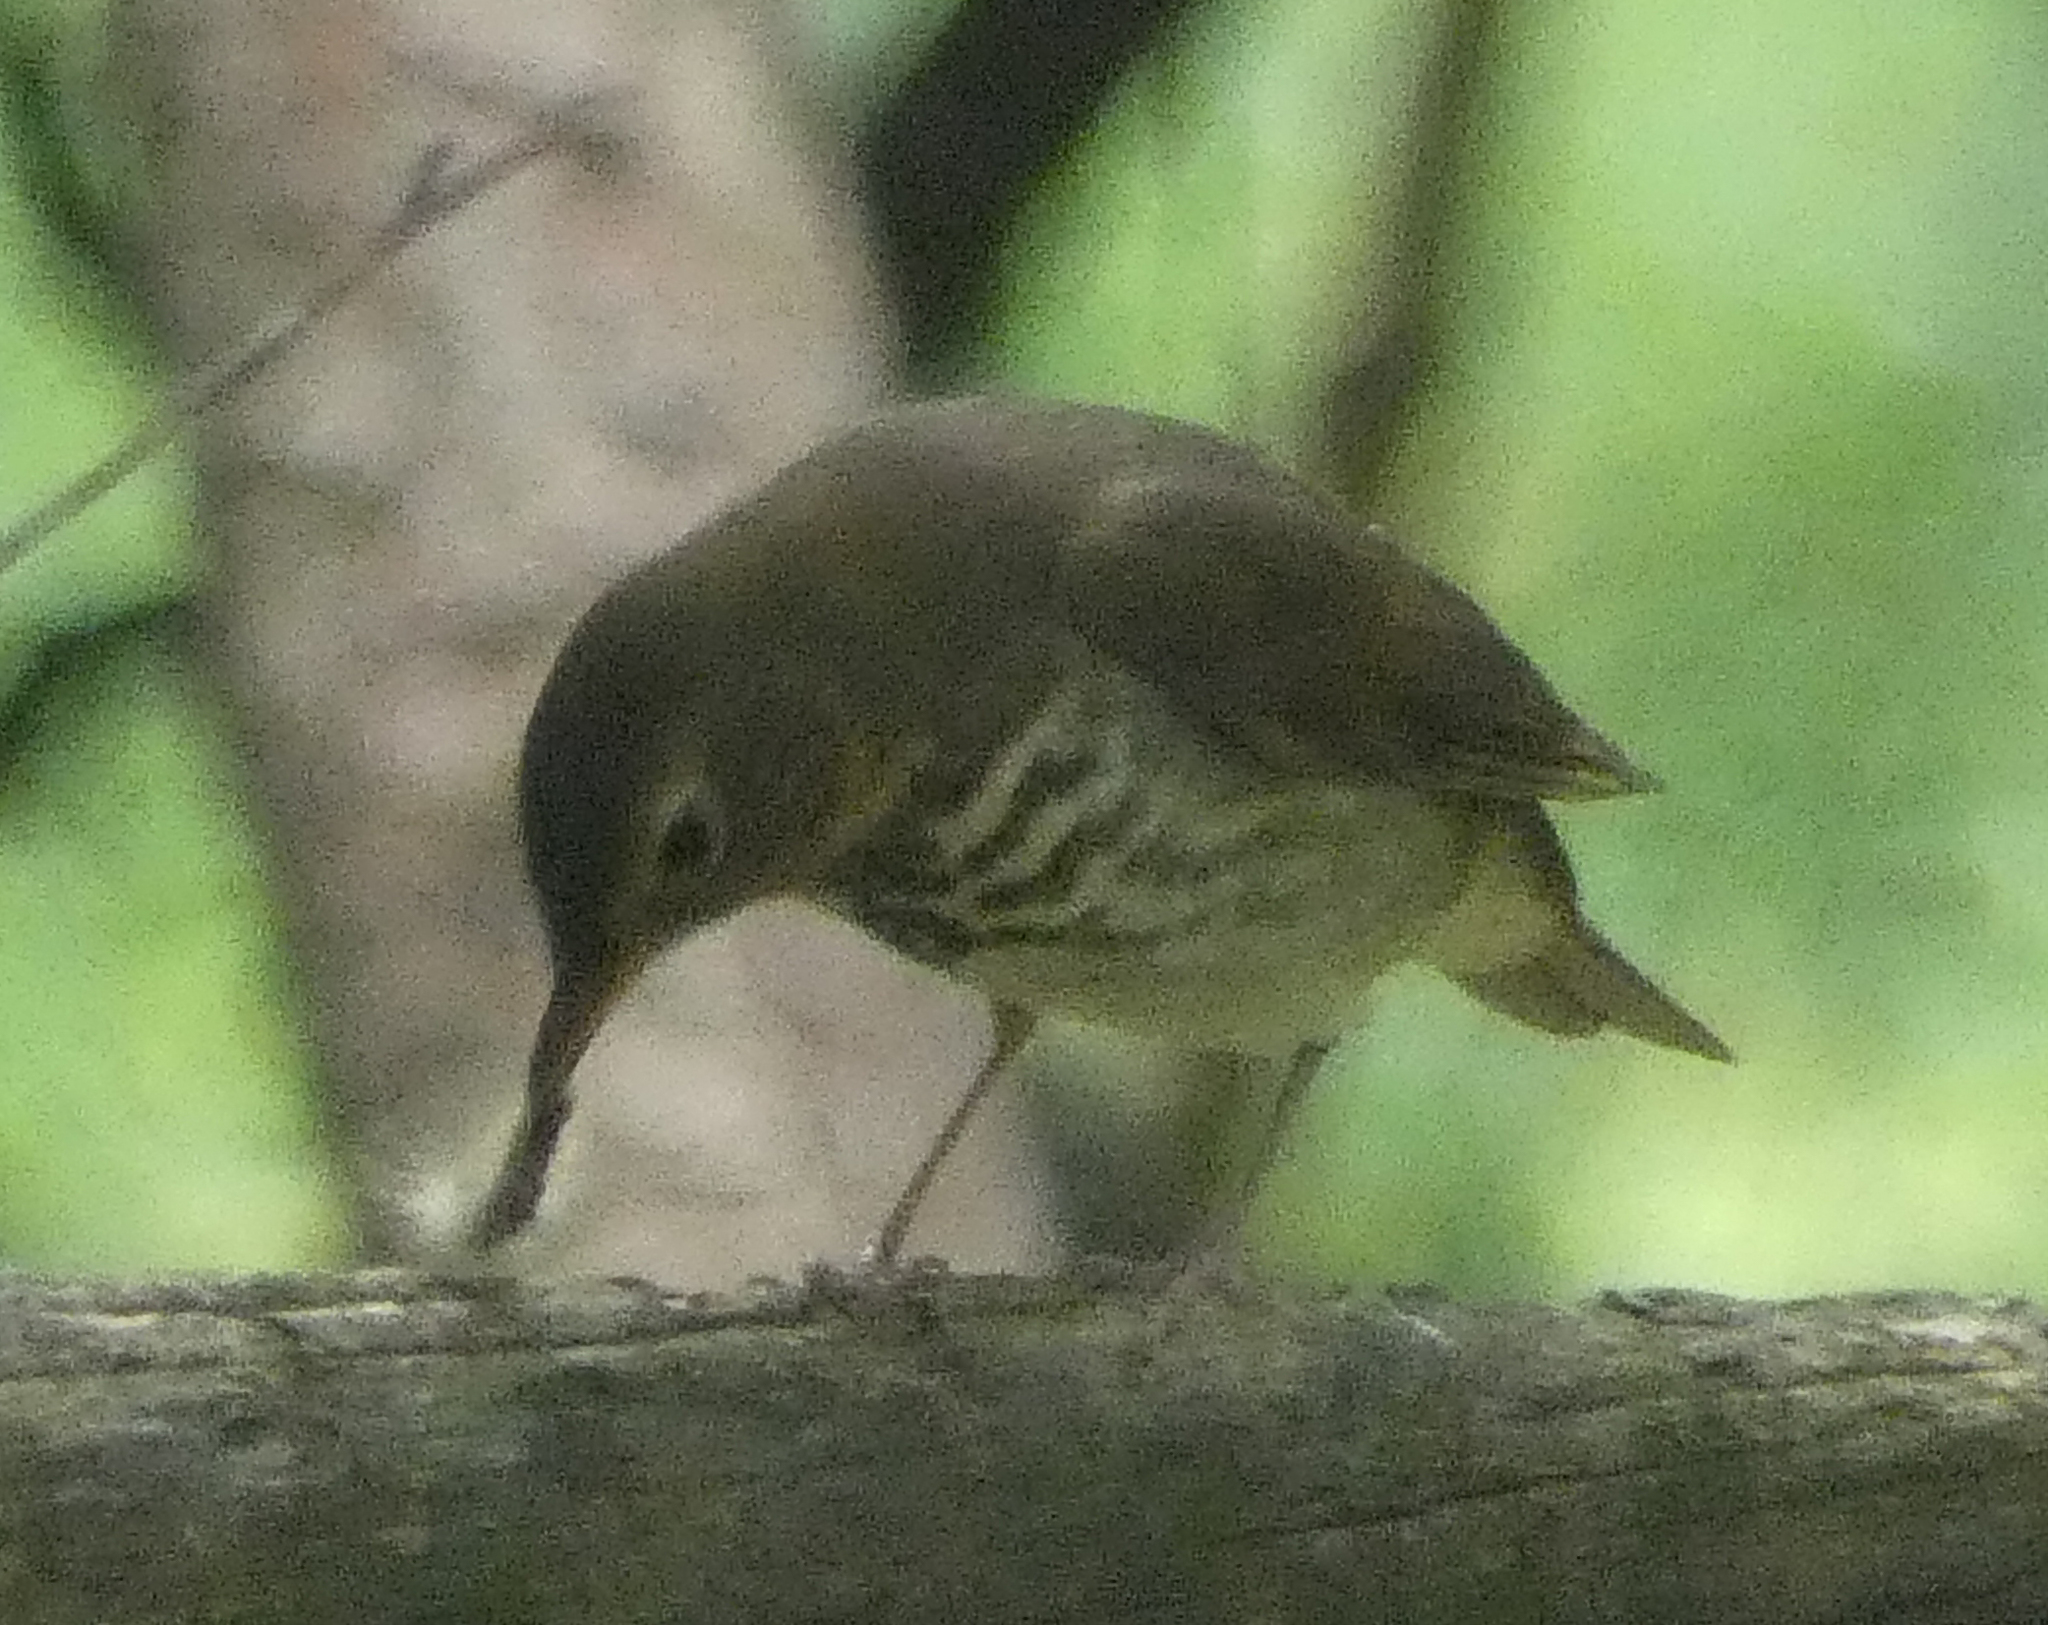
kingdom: Animalia
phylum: Chordata
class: Aves
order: Passeriformes
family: Turdidae
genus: Catharus
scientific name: Catharus ustulatus
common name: Swainson's thrush
